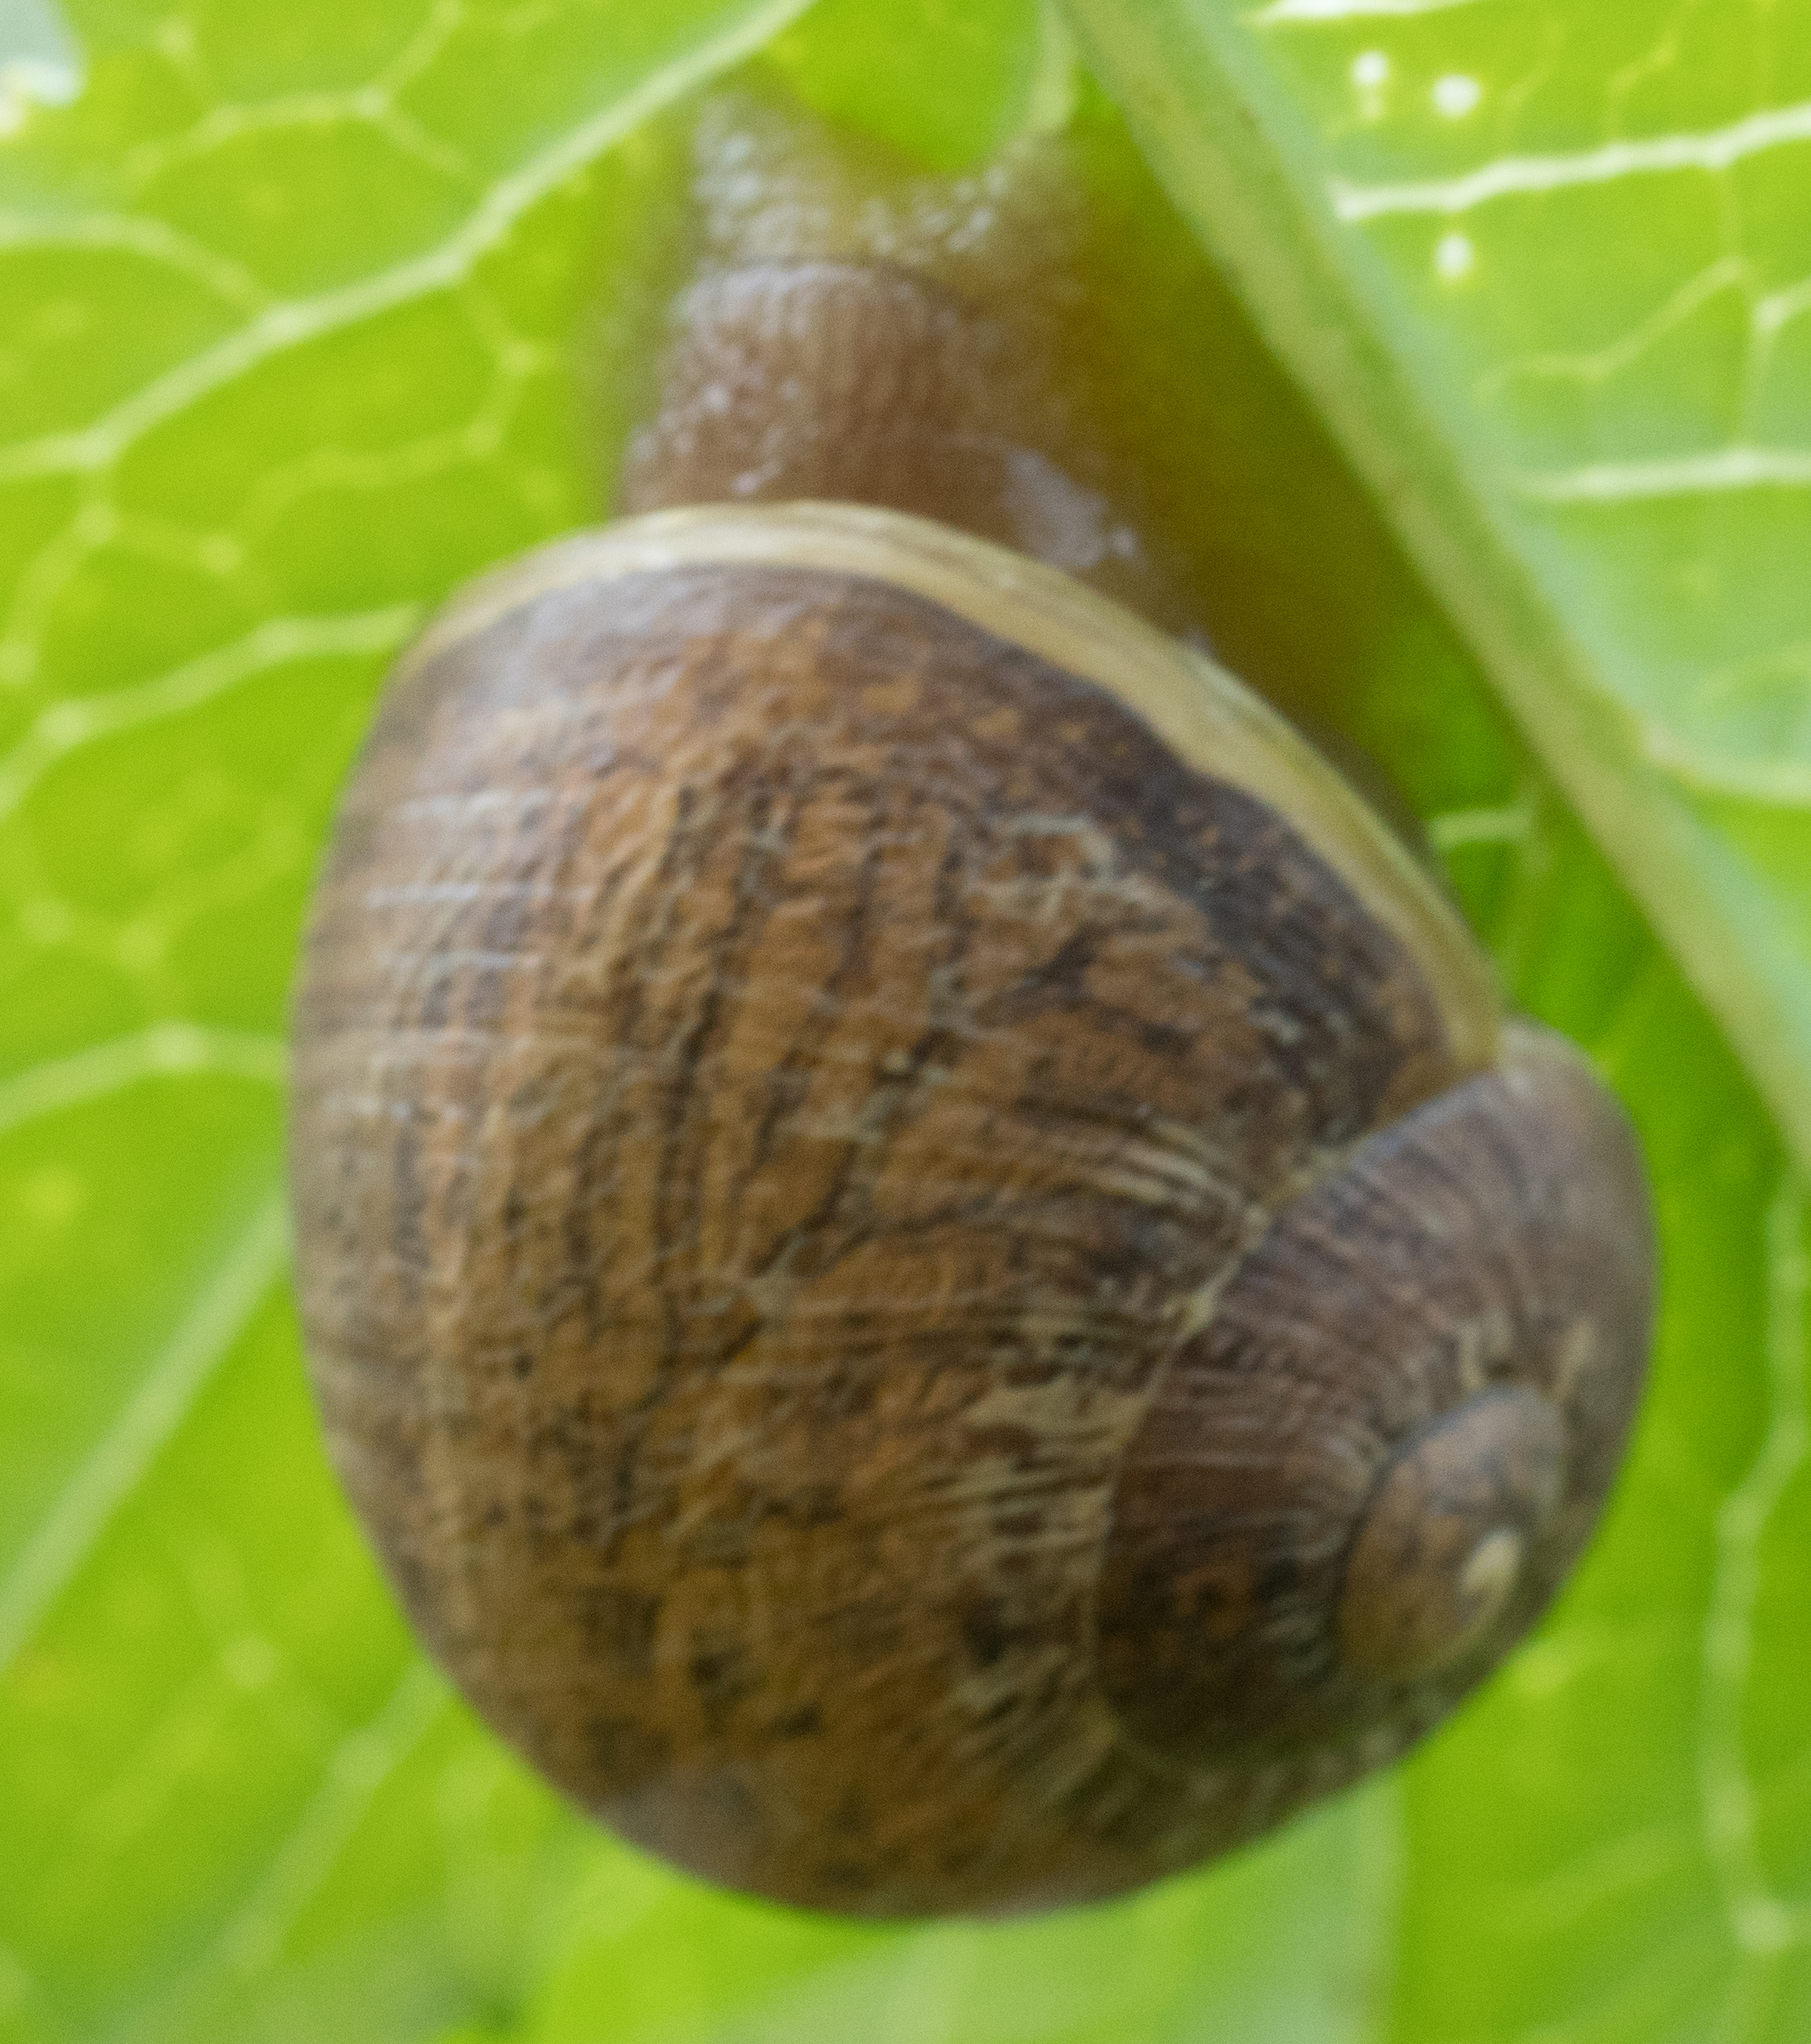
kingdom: Animalia
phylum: Mollusca
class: Gastropoda
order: Stylommatophora
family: Helicidae
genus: Cornu
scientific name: Cornu aspersum
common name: Brown garden snail
